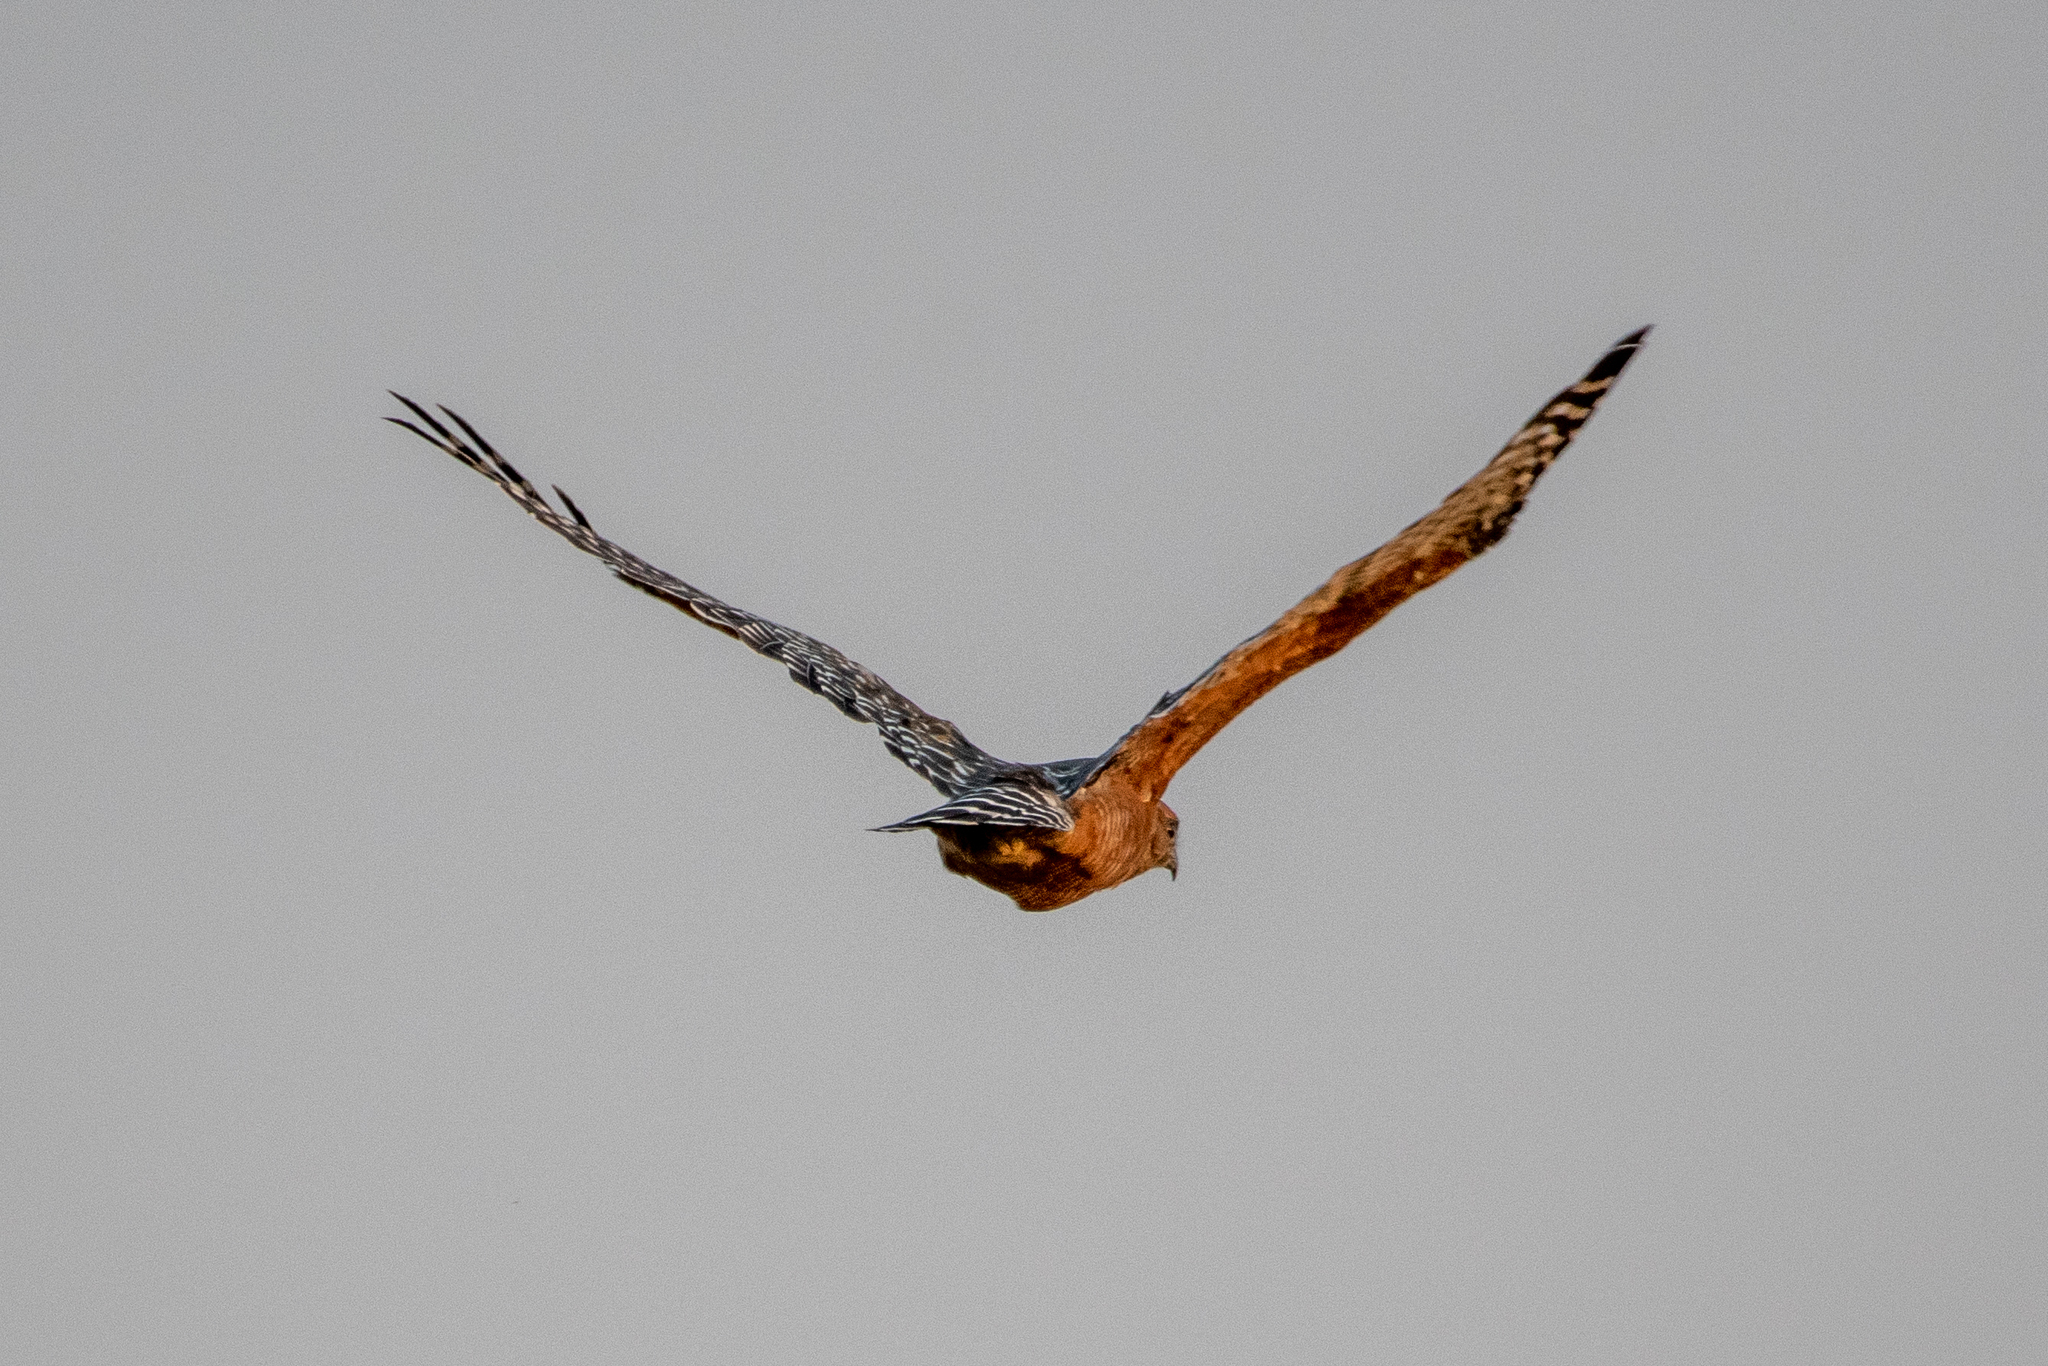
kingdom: Animalia
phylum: Chordata
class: Aves
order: Accipitriformes
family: Accipitridae
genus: Buteo
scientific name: Buteo lineatus
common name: Red-shouldered hawk
